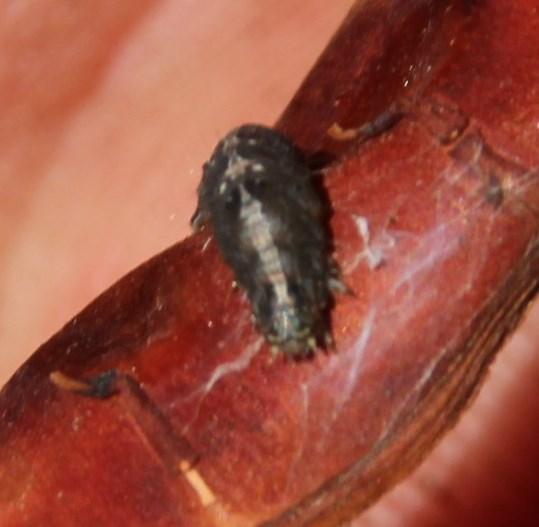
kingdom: Animalia
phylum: Arthropoda
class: Insecta
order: Lepidoptera
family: Erebidae
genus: Pandesma
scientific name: Pandesma robusta
